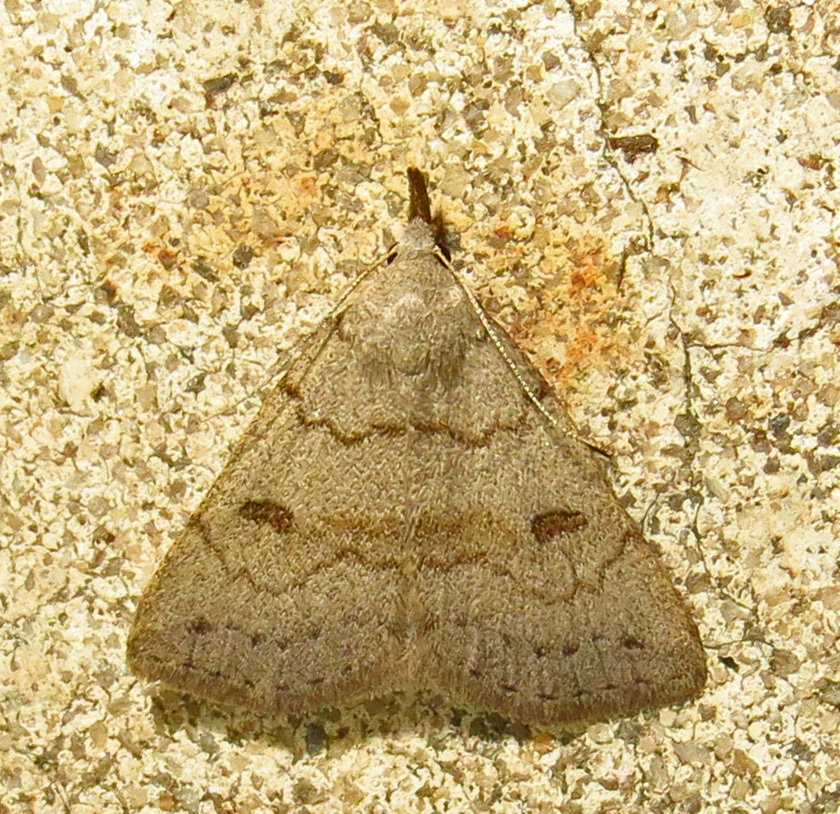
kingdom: Animalia
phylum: Arthropoda
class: Insecta
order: Lepidoptera
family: Erebidae
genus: Macrochilo
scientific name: Macrochilo morbidalis
